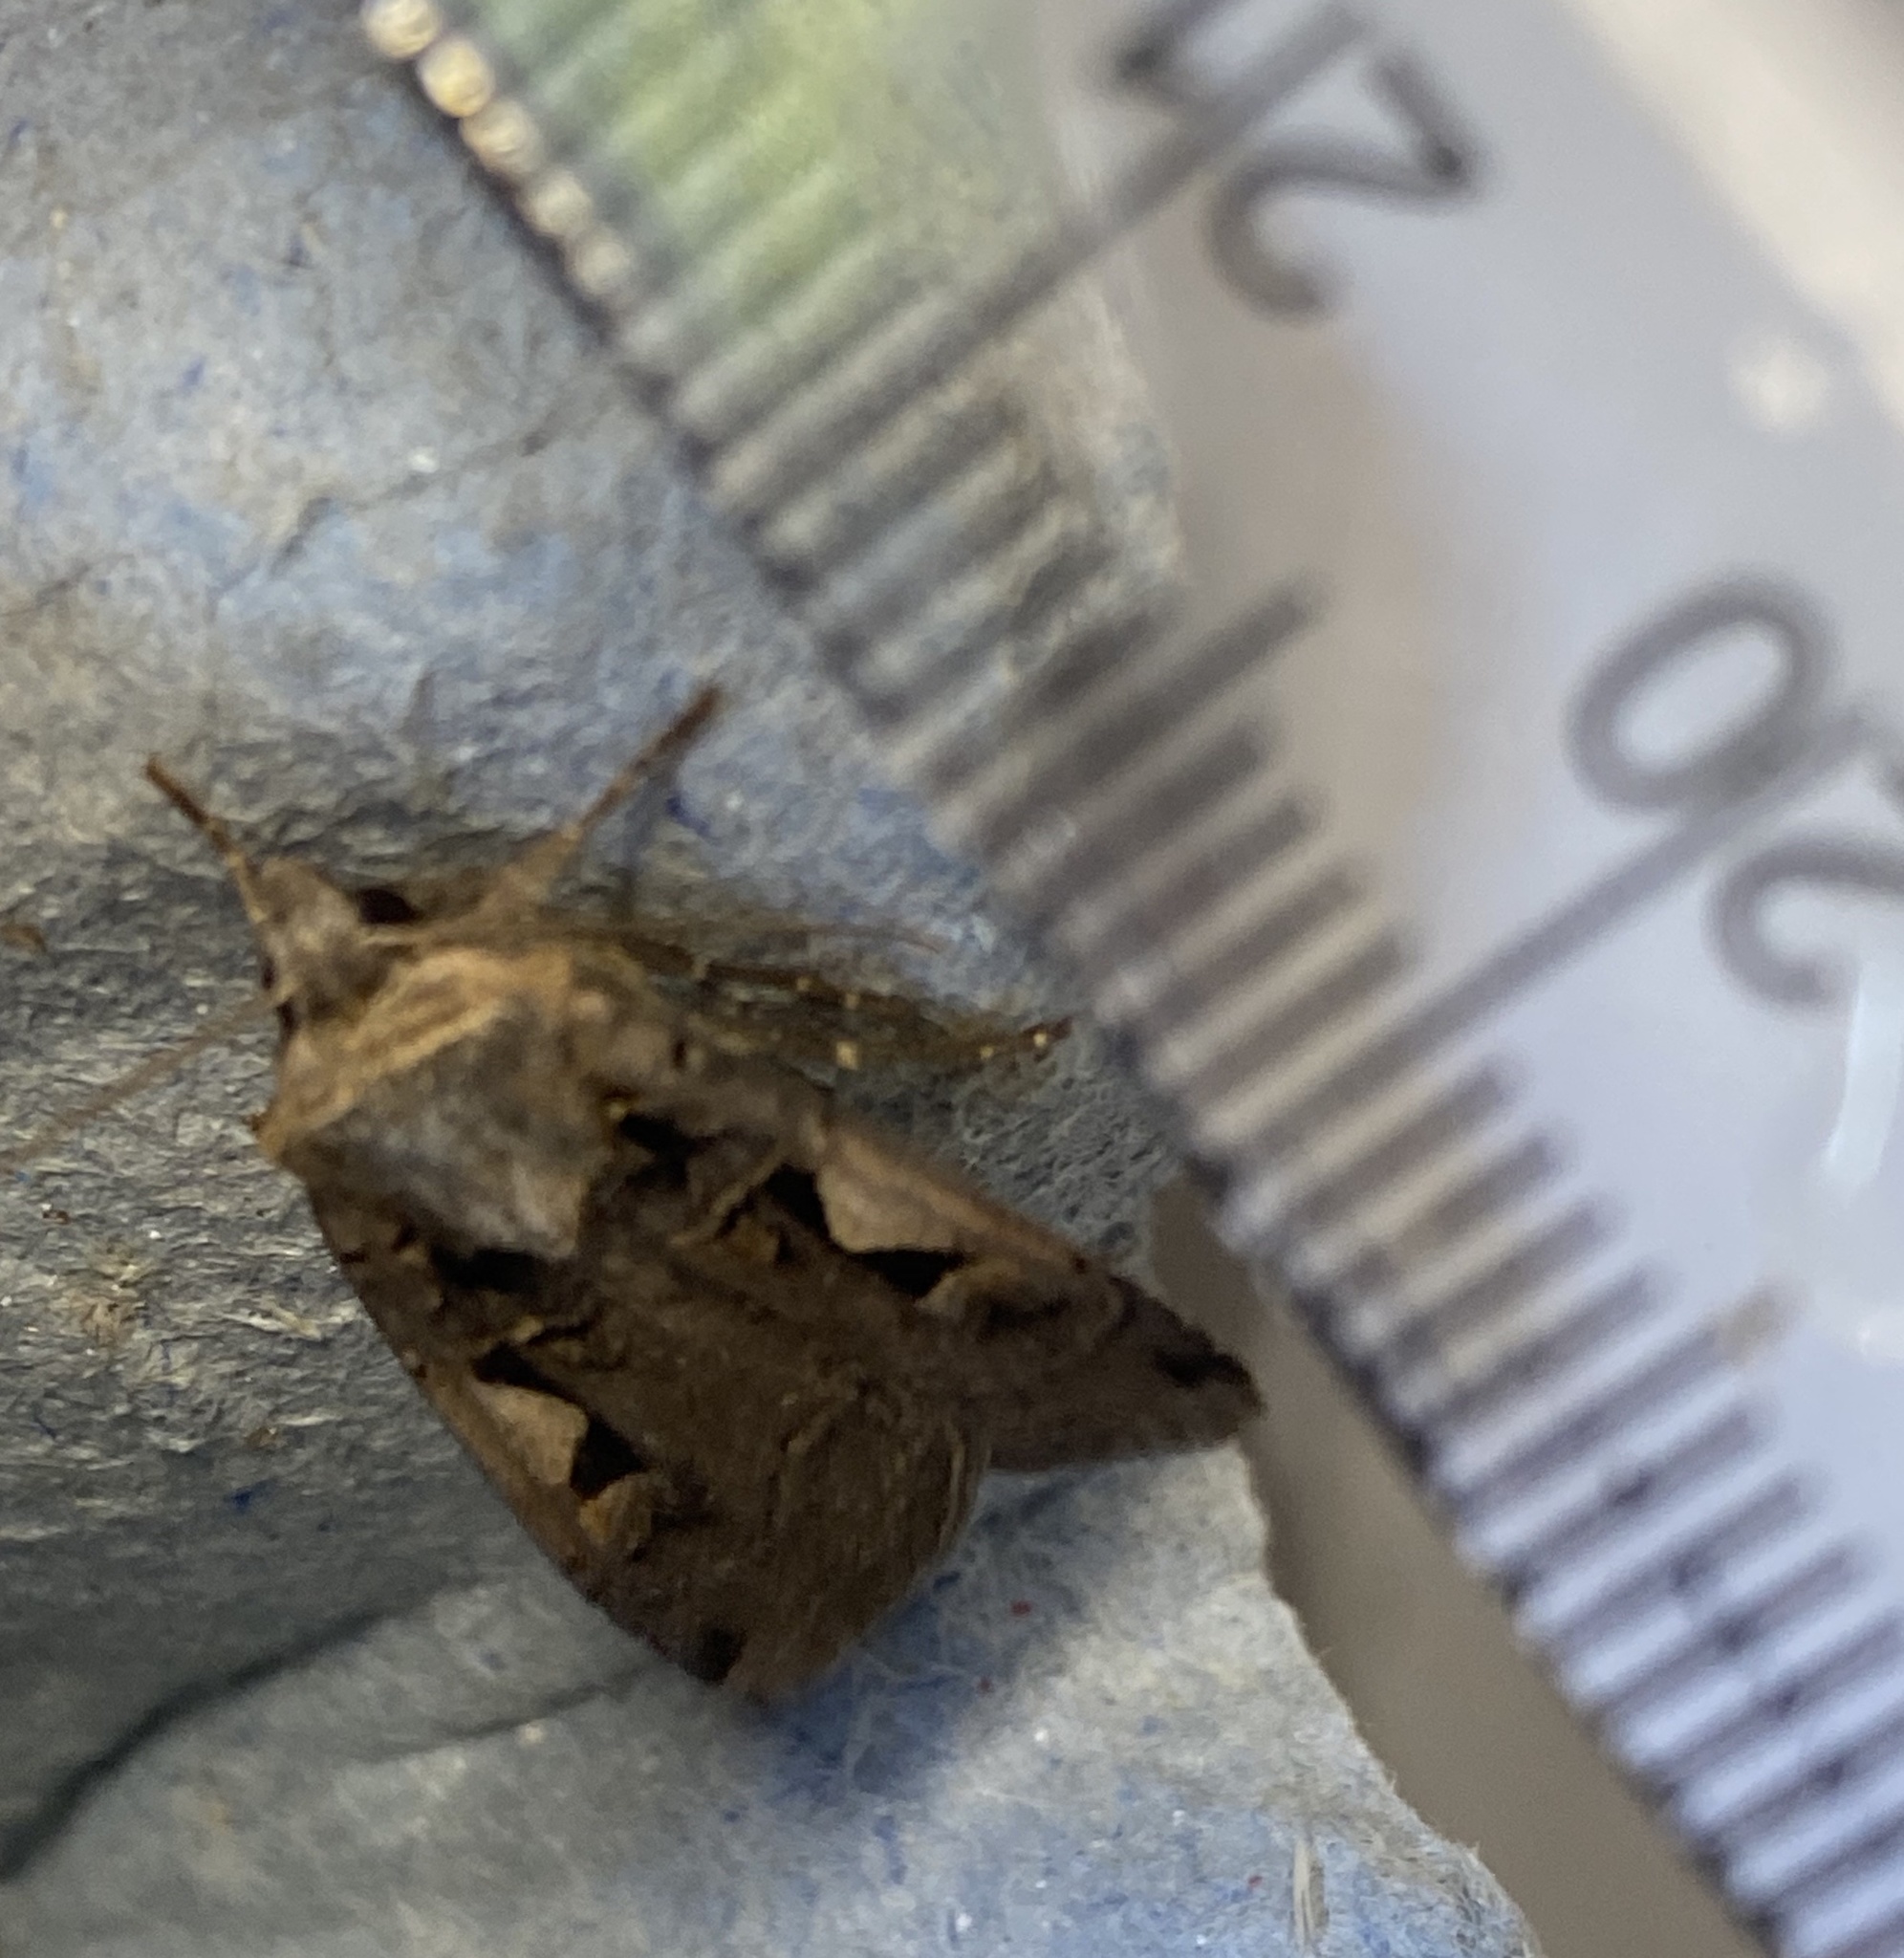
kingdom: Animalia
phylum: Arthropoda
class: Insecta
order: Lepidoptera
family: Noctuidae
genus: Xestia
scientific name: Xestia c-nigrum
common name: Setaceous hebrew character
